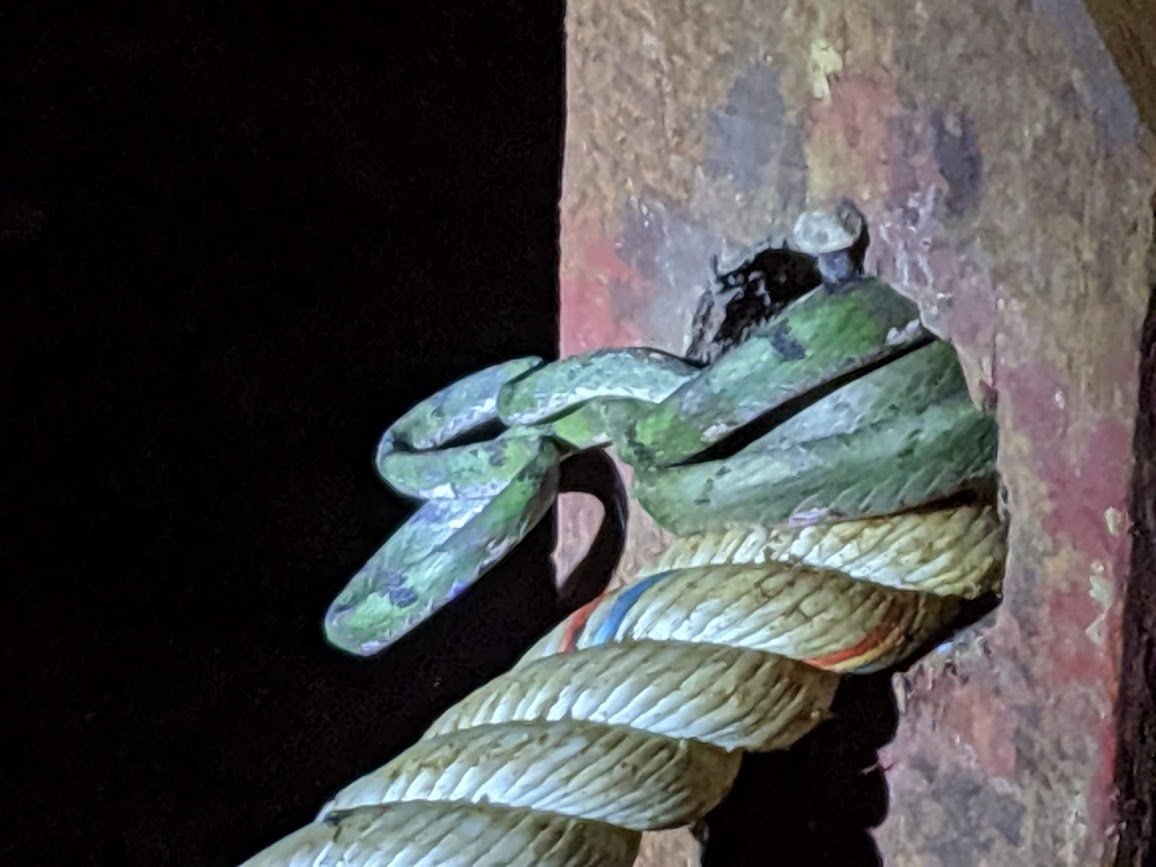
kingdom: Animalia
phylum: Chordata
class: Squamata
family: Colubridae
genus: Boiga
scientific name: Boiga drapiezii
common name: White-spotted cat snake
